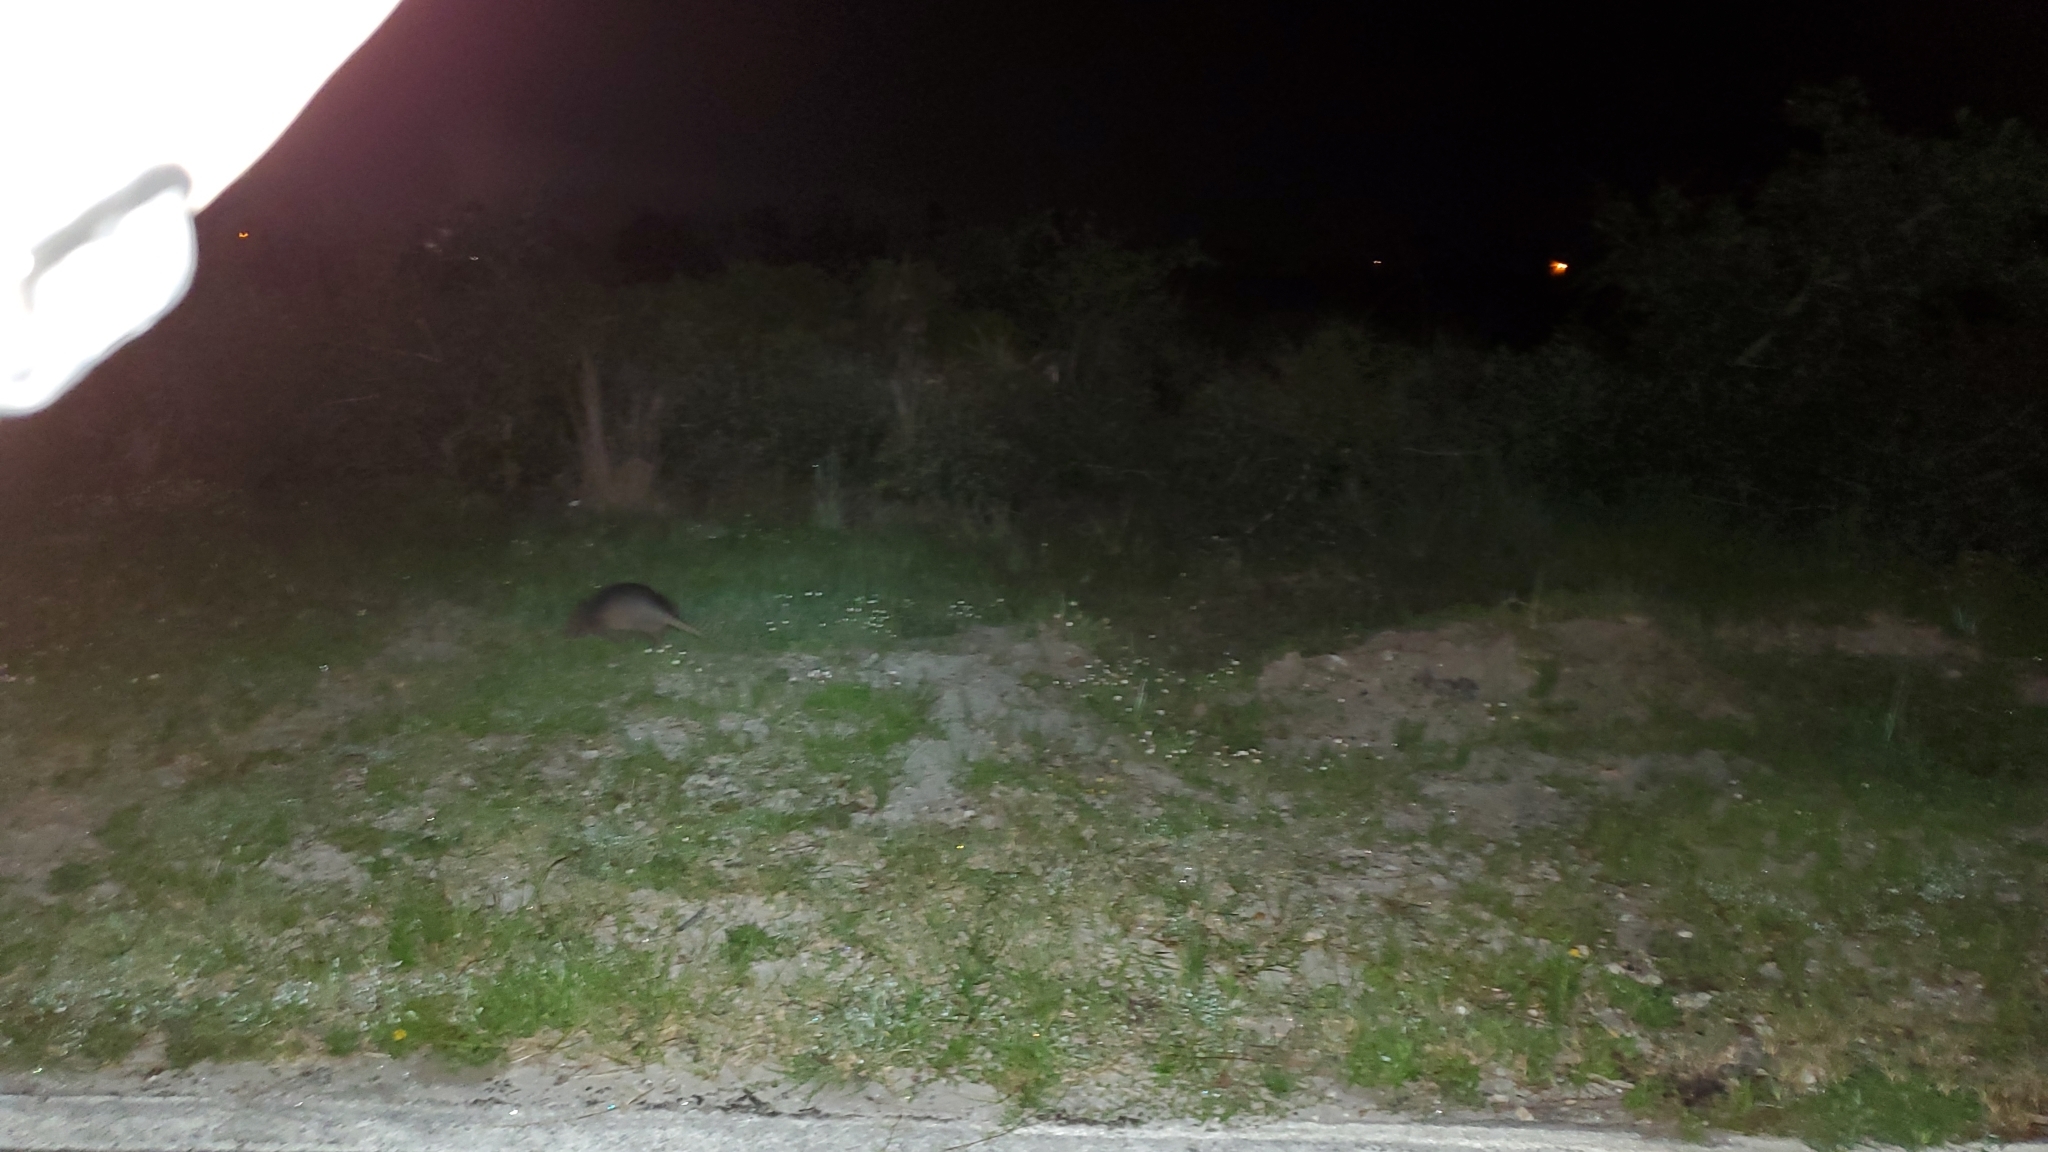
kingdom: Animalia
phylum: Chordata
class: Mammalia
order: Cingulata
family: Dasypodidae
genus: Dasypus
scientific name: Dasypus novemcinctus
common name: Nine-banded armadillo
